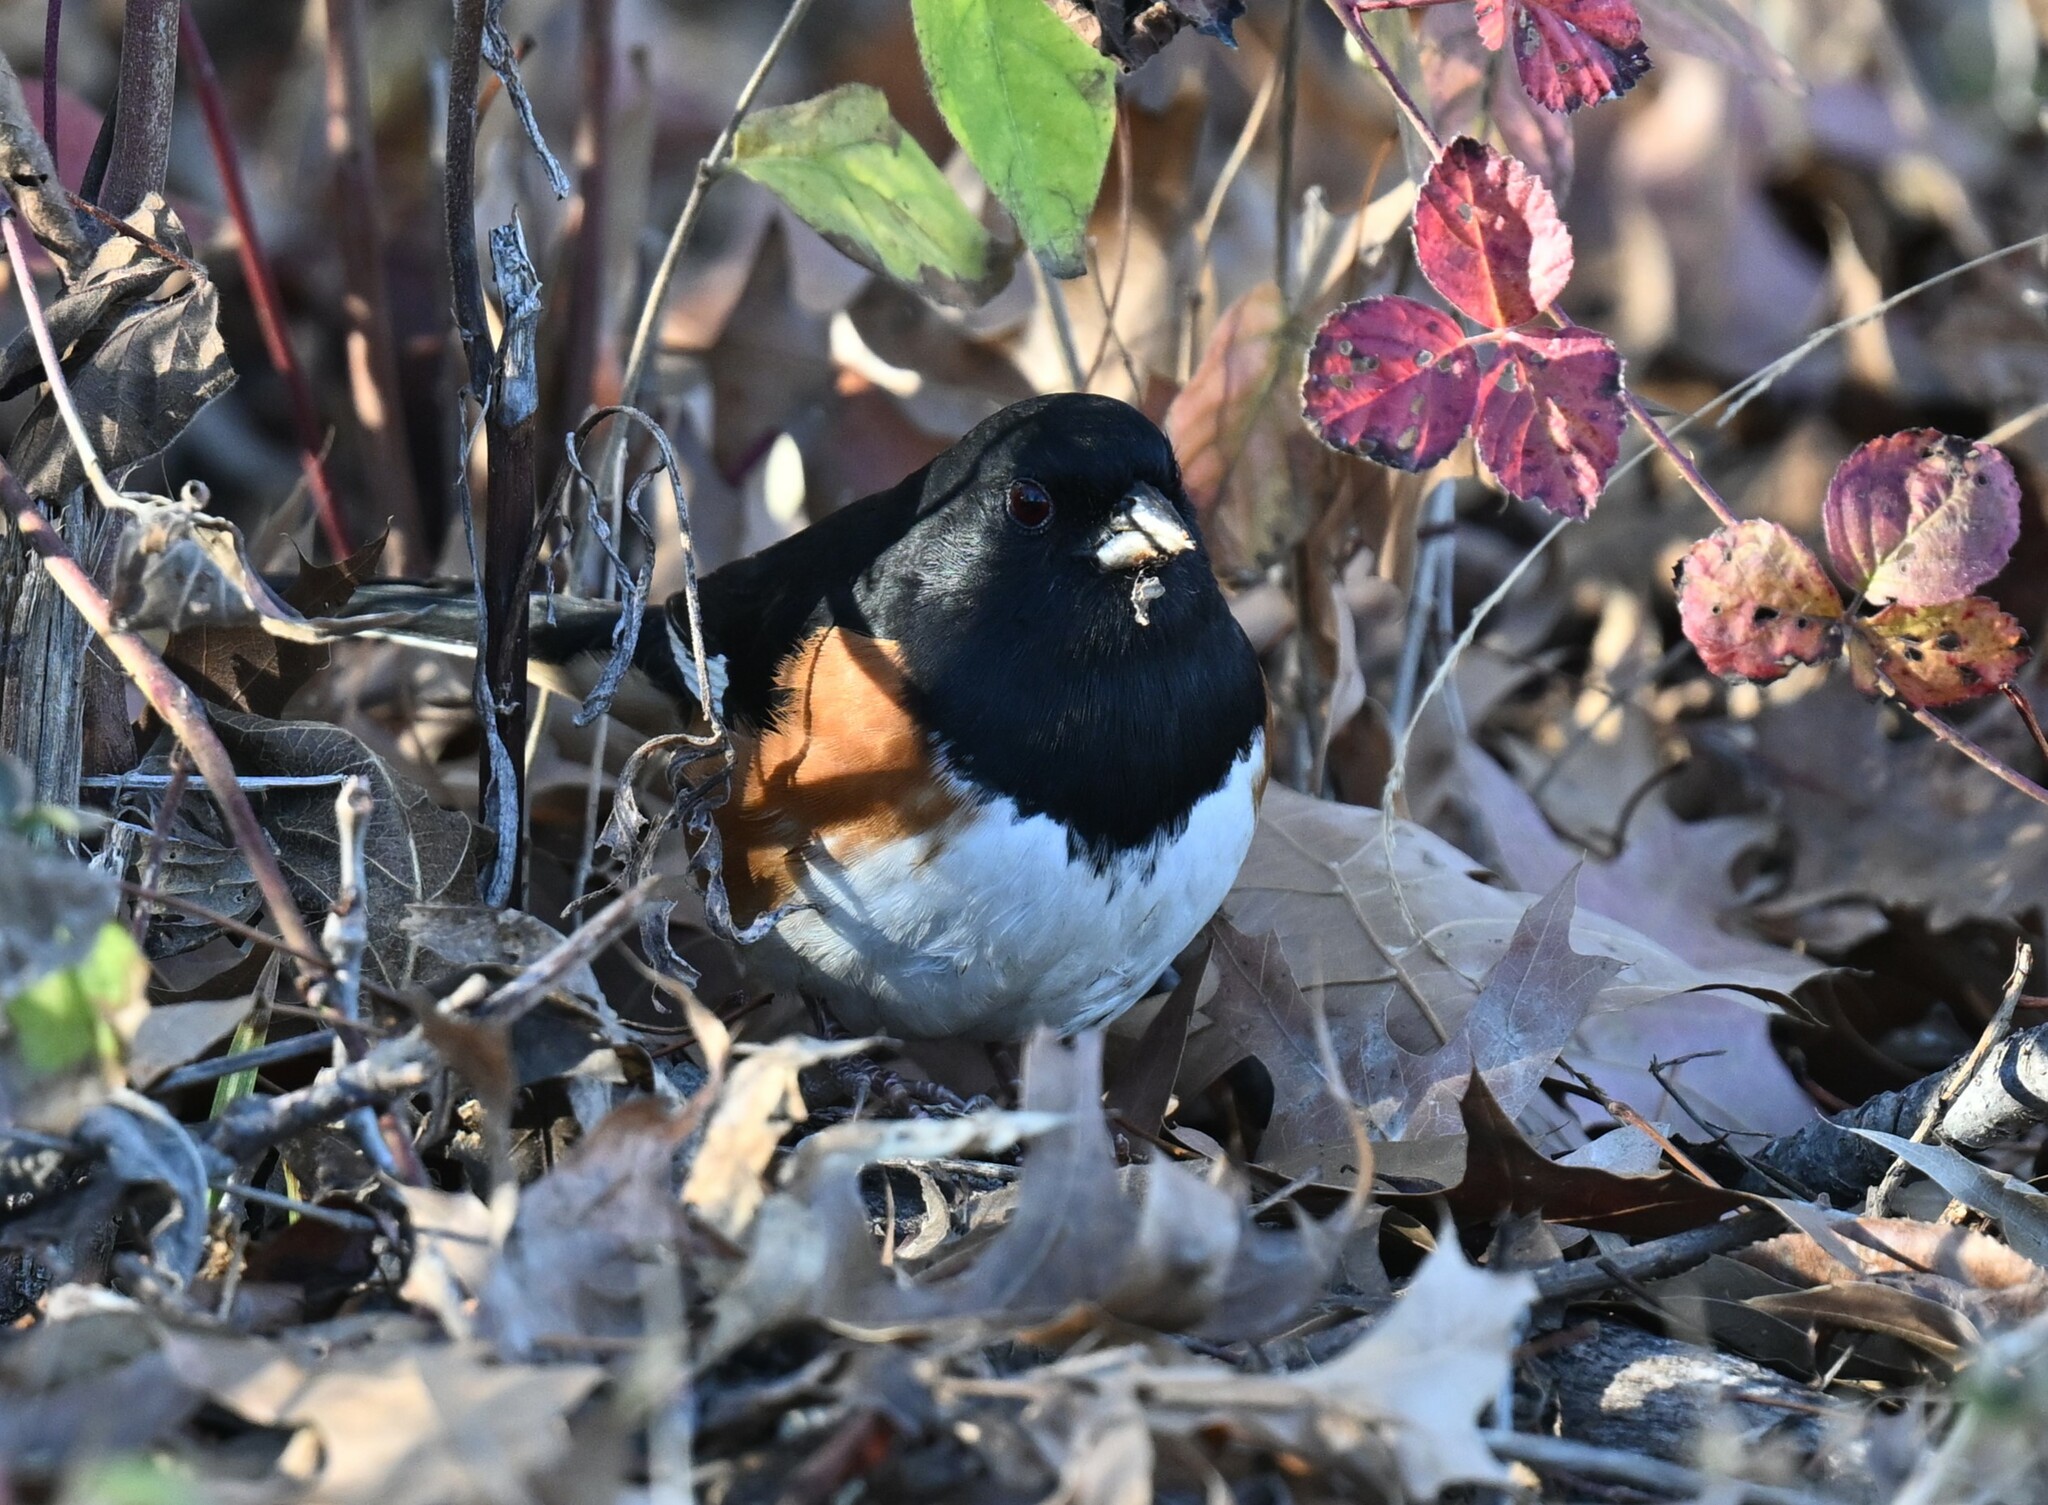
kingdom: Animalia
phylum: Chordata
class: Aves
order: Passeriformes
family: Passerellidae
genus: Pipilo
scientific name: Pipilo erythrophthalmus
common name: Eastern towhee
